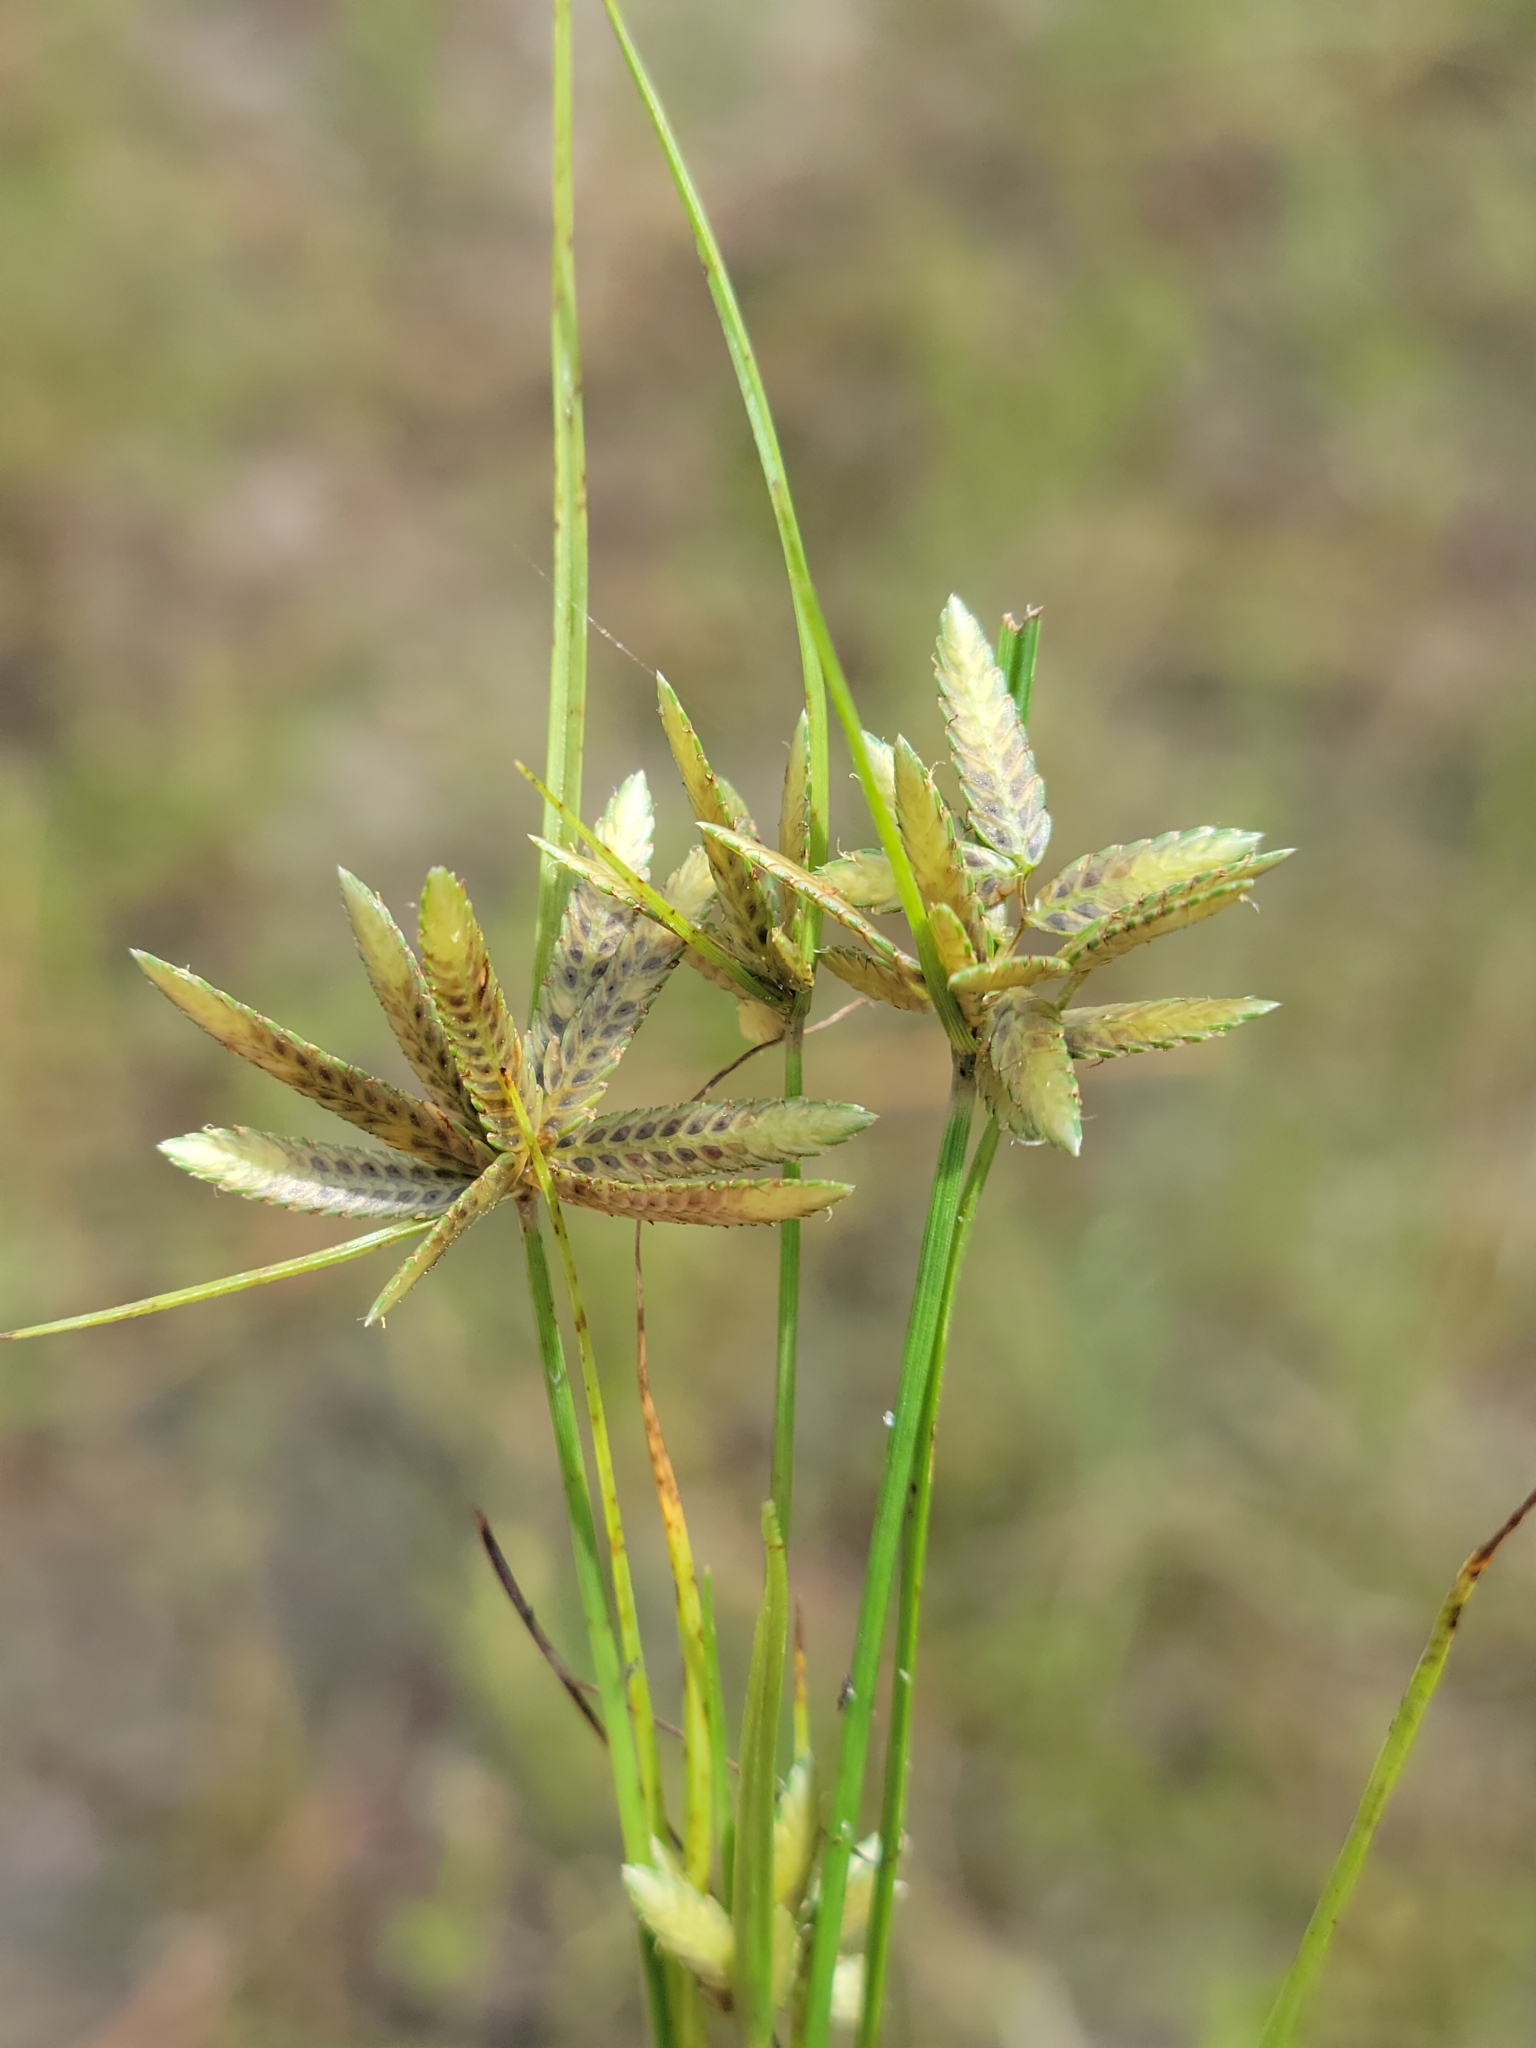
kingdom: Plantae
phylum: Tracheophyta
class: Liliopsida
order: Poales
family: Cyperaceae
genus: Cyperus
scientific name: Cyperus flavescens
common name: Yellow galingale
